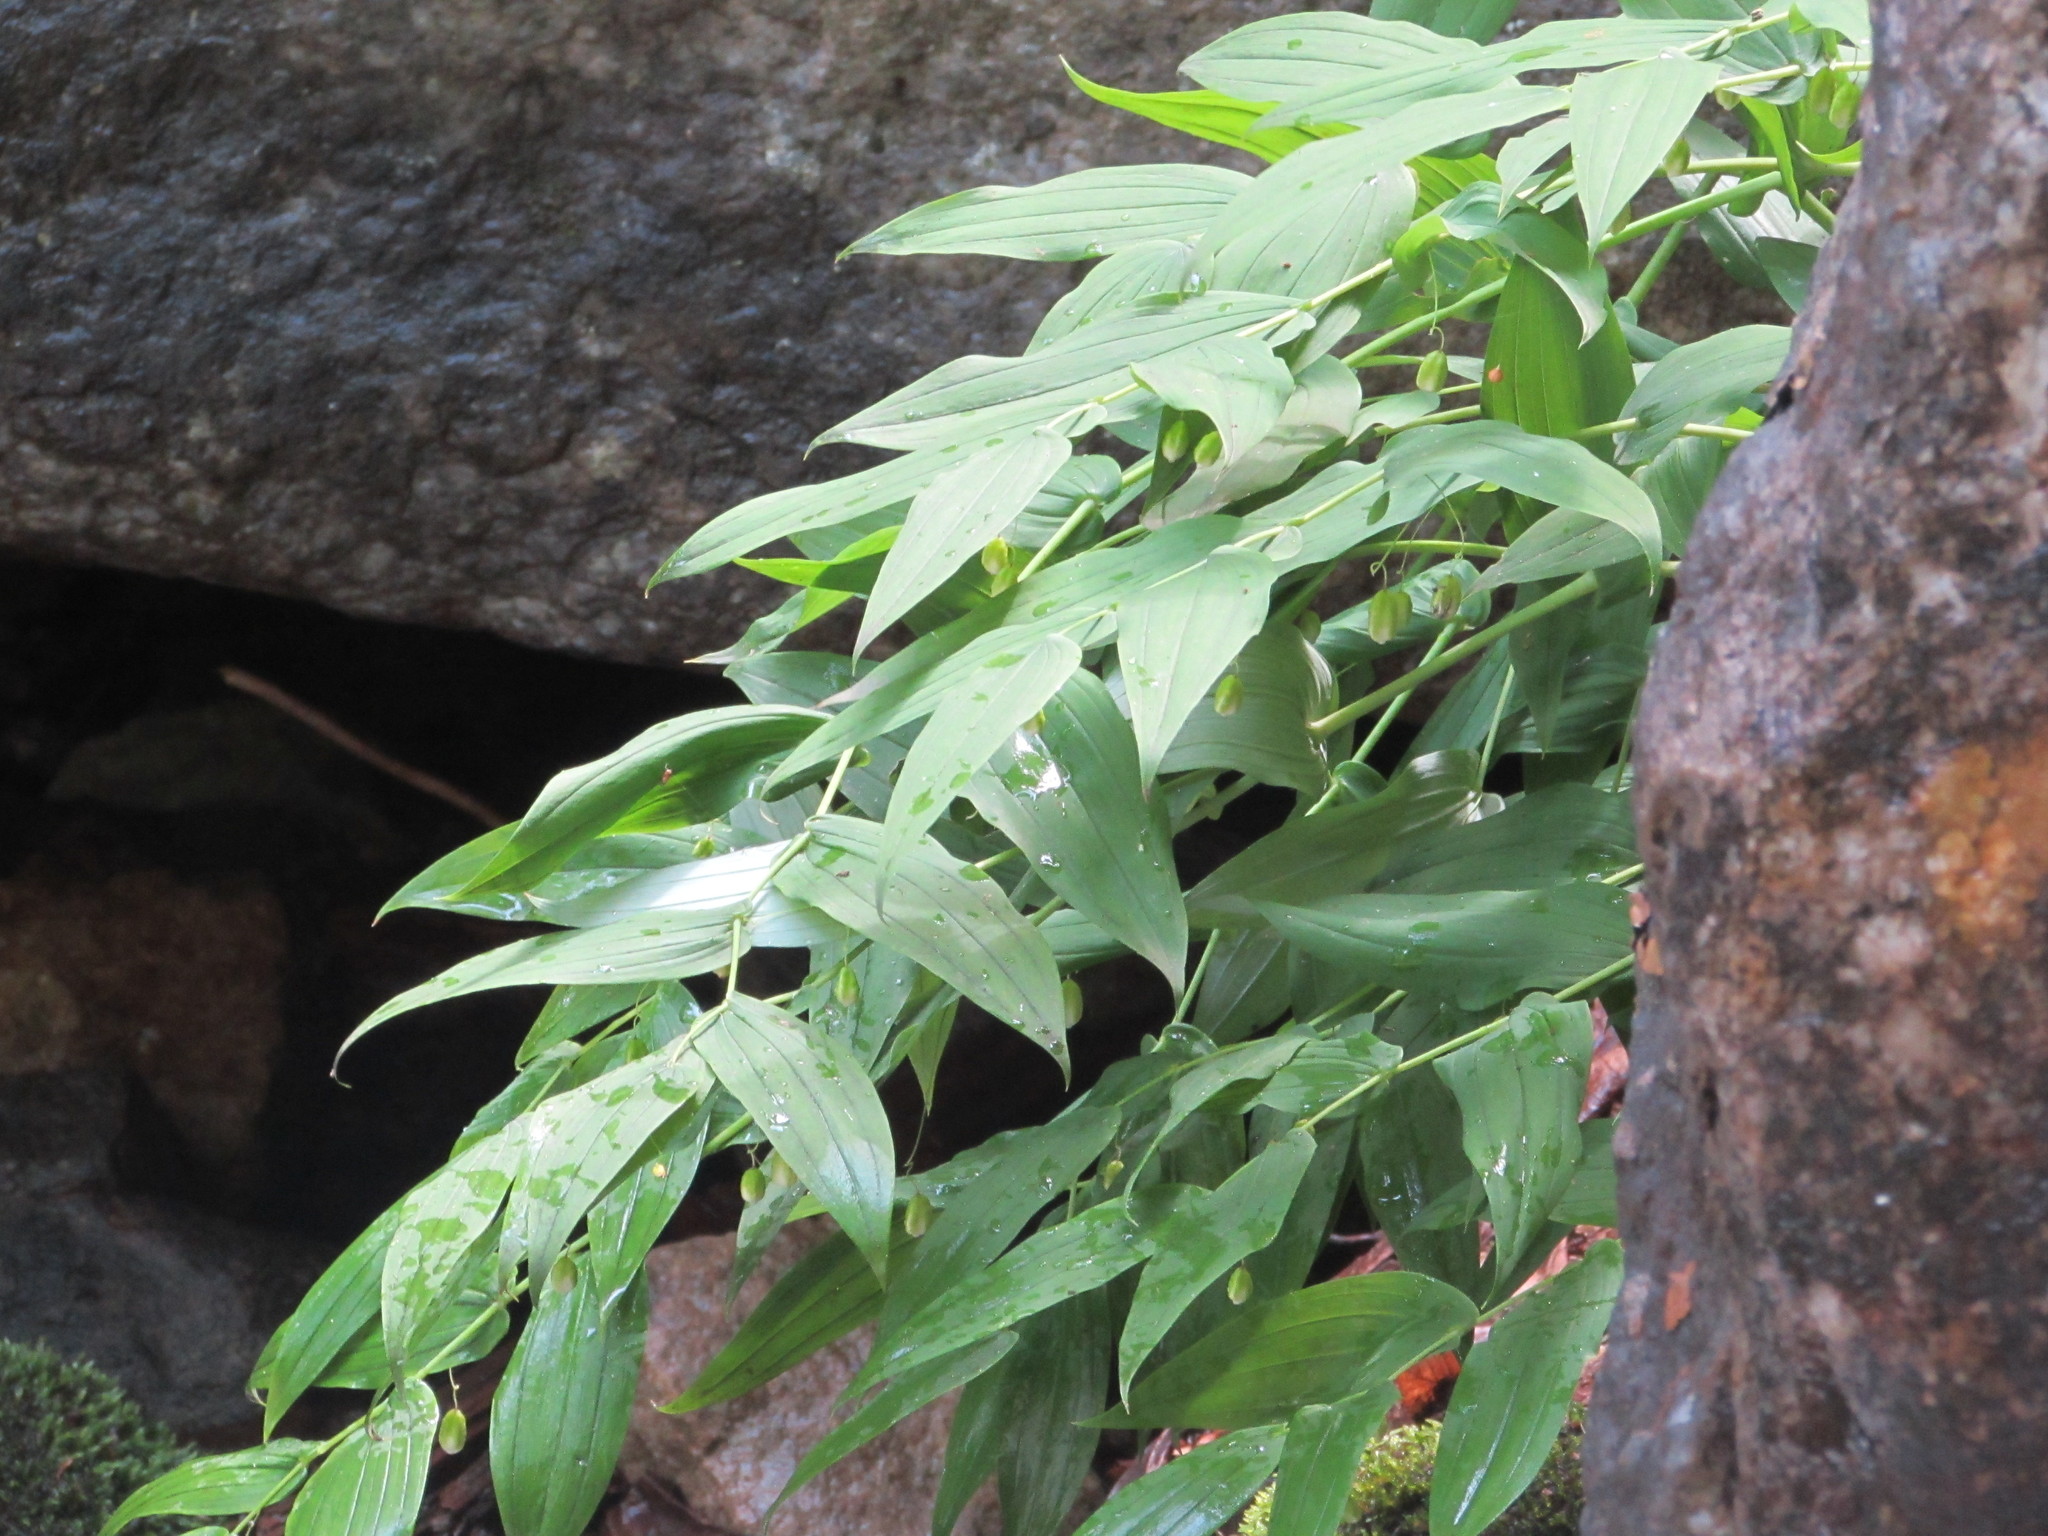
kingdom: Plantae
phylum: Tracheophyta
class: Liliopsida
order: Liliales
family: Liliaceae
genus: Streptopus
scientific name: Streptopus amplexifolius
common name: Clasp twisted stalk
